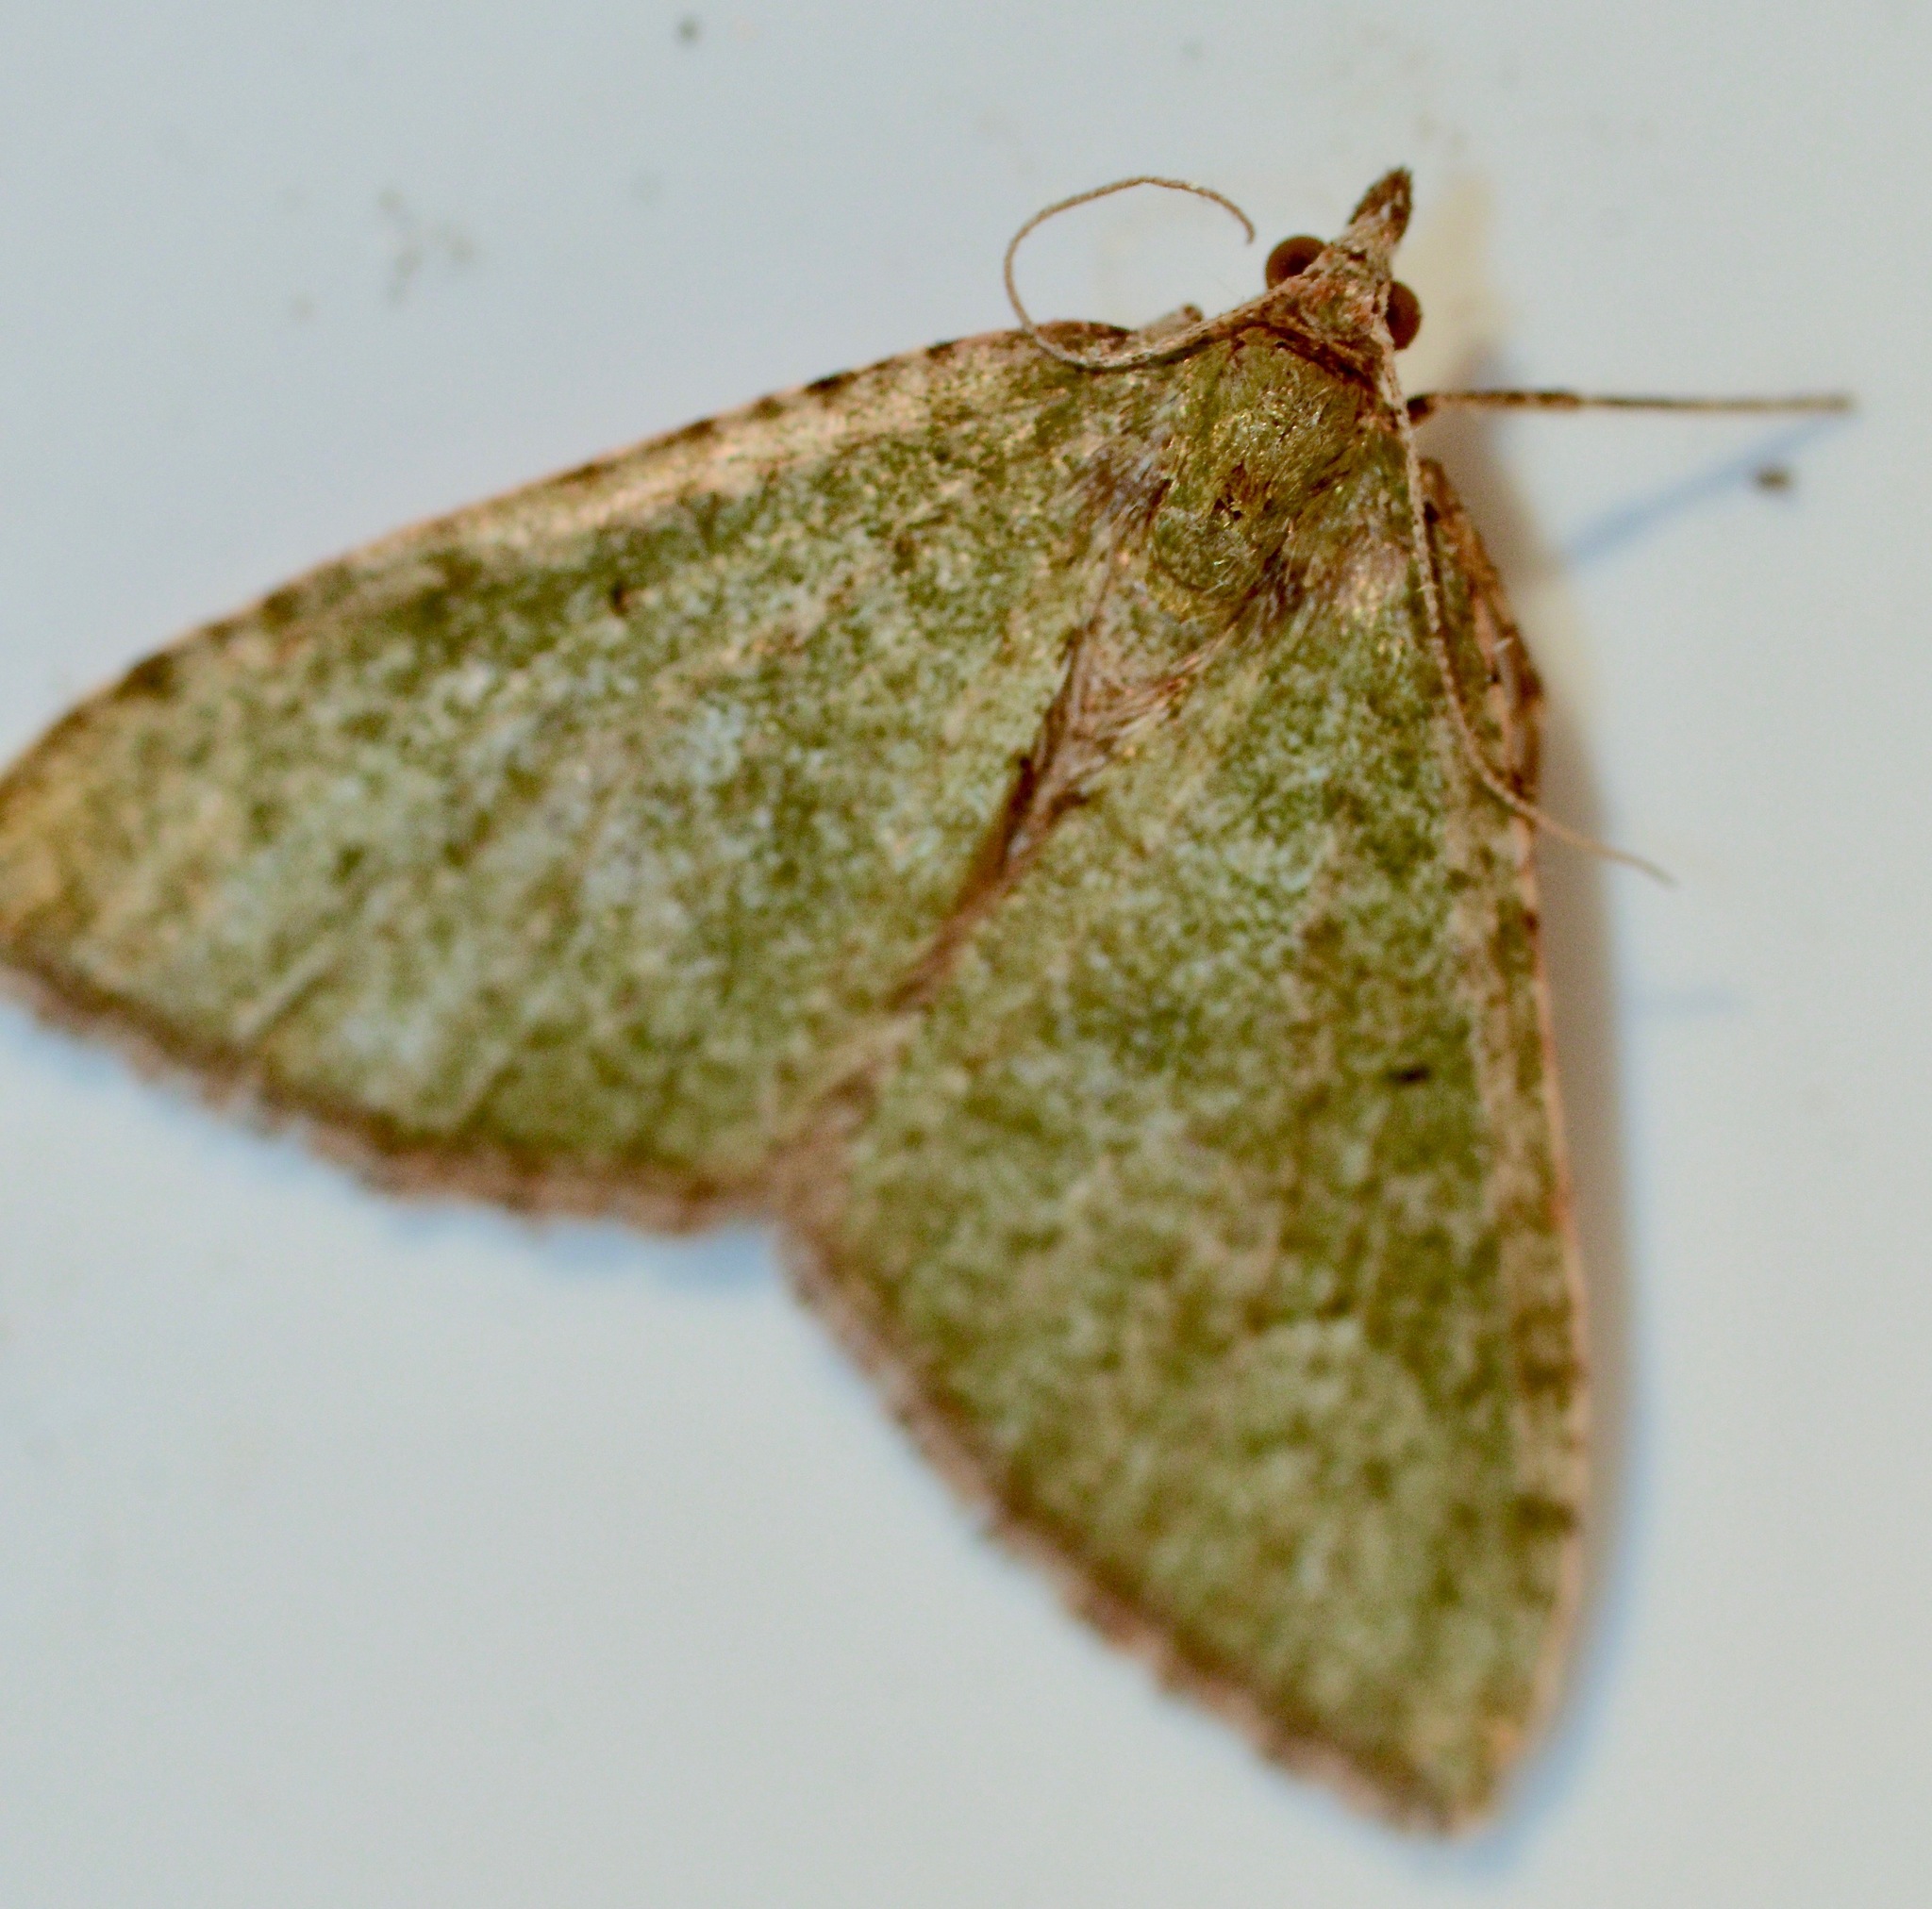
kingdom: Animalia
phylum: Arthropoda
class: Insecta
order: Lepidoptera
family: Geometridae
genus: Epyaxa
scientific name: Epyaxa rosearia
